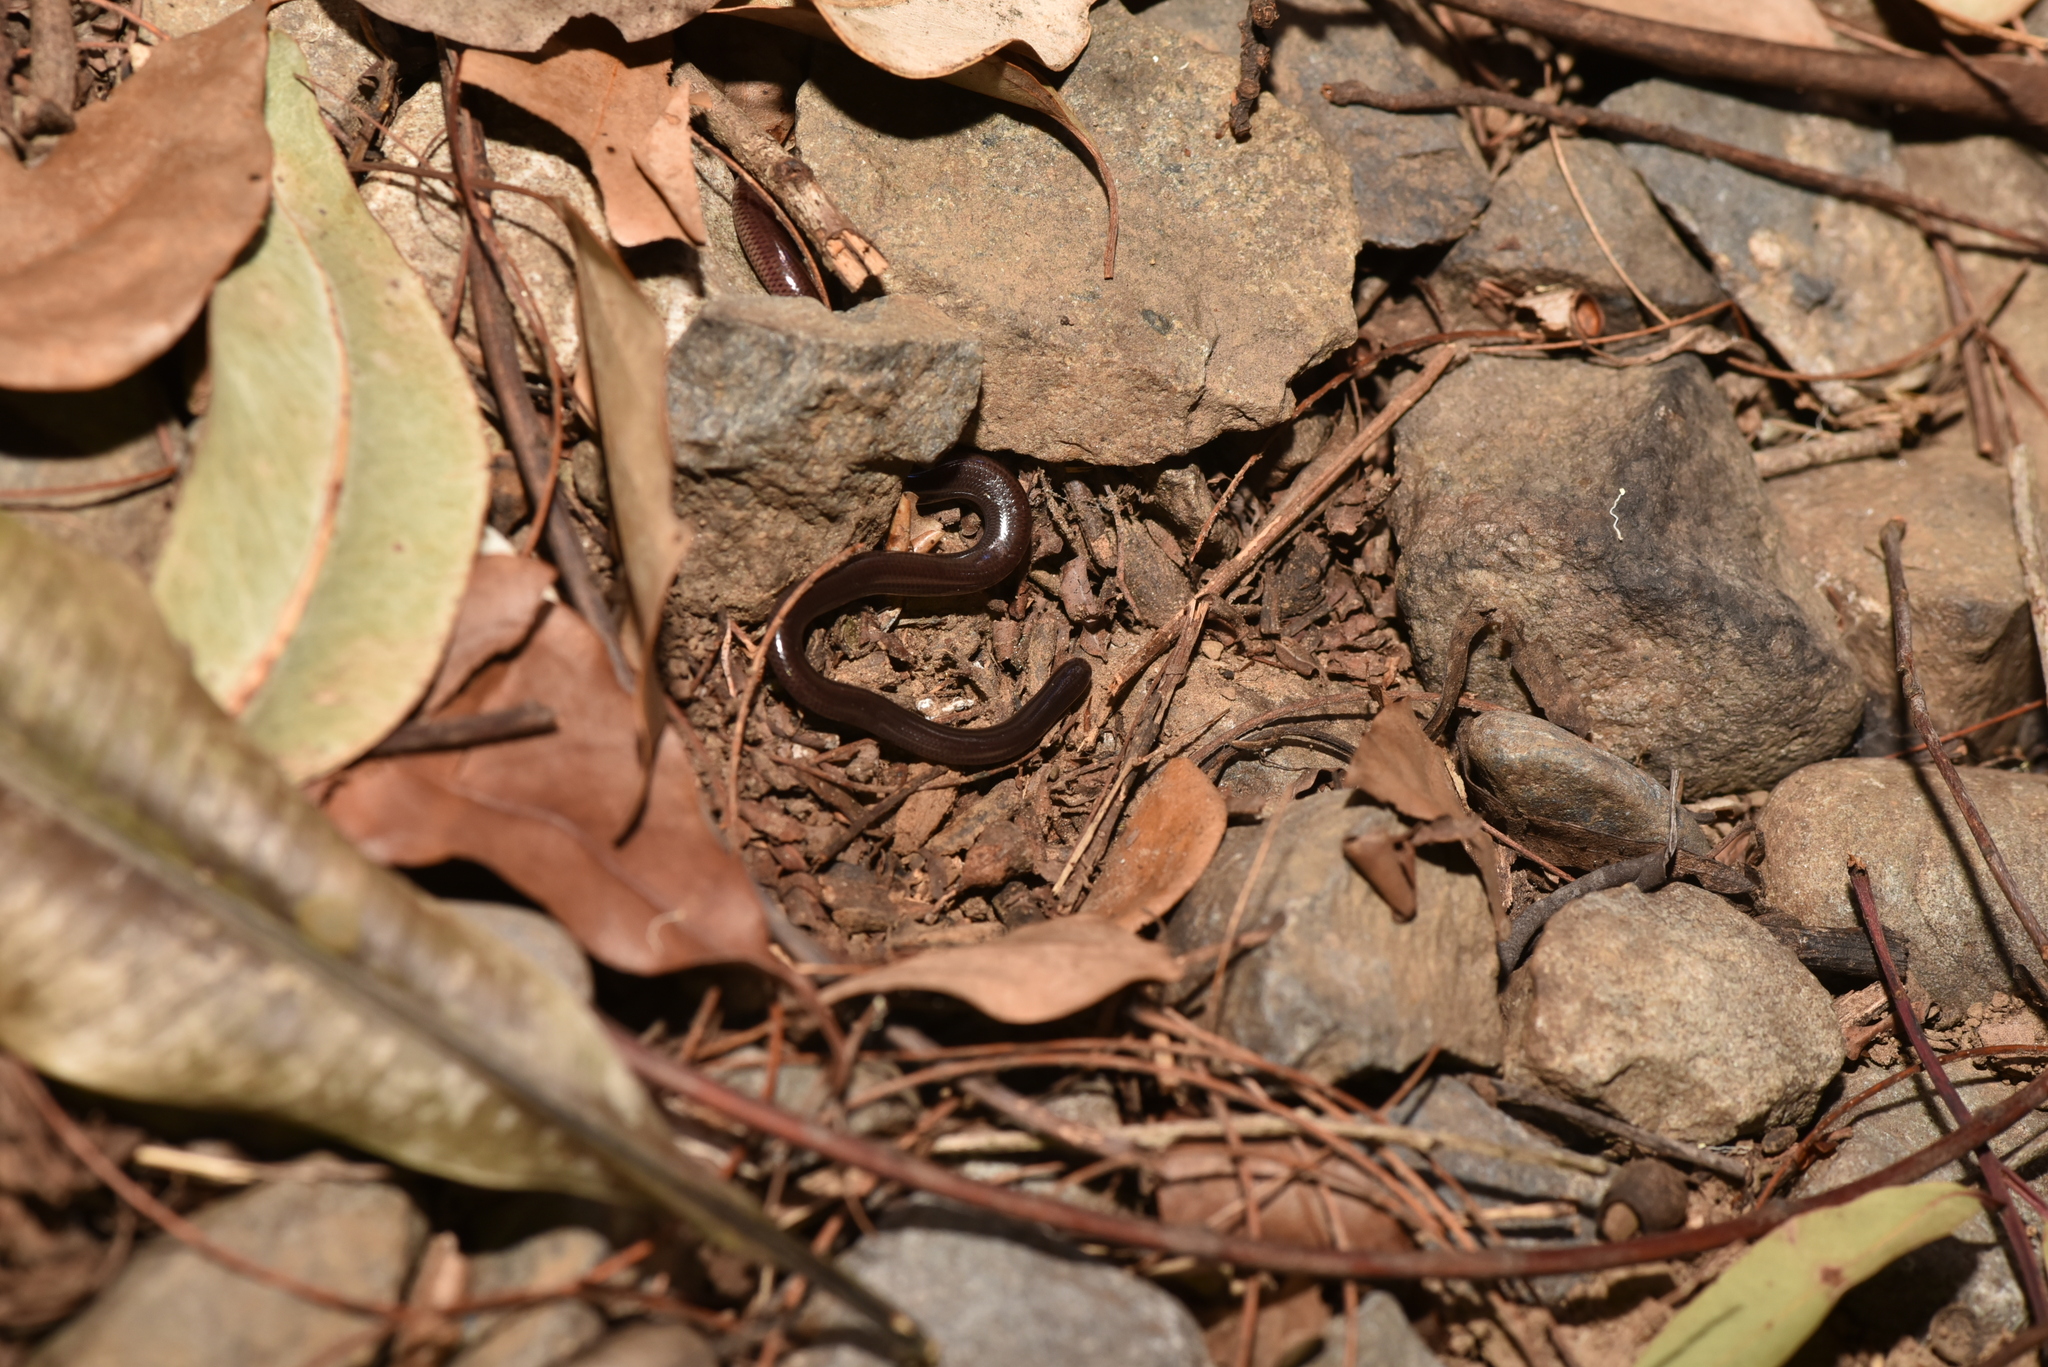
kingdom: Animalia
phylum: Chordata
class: Squamata
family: Typhlopidae
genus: Indotyphlops
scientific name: Indotyphlops braminus
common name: Brahminy blindsnake
